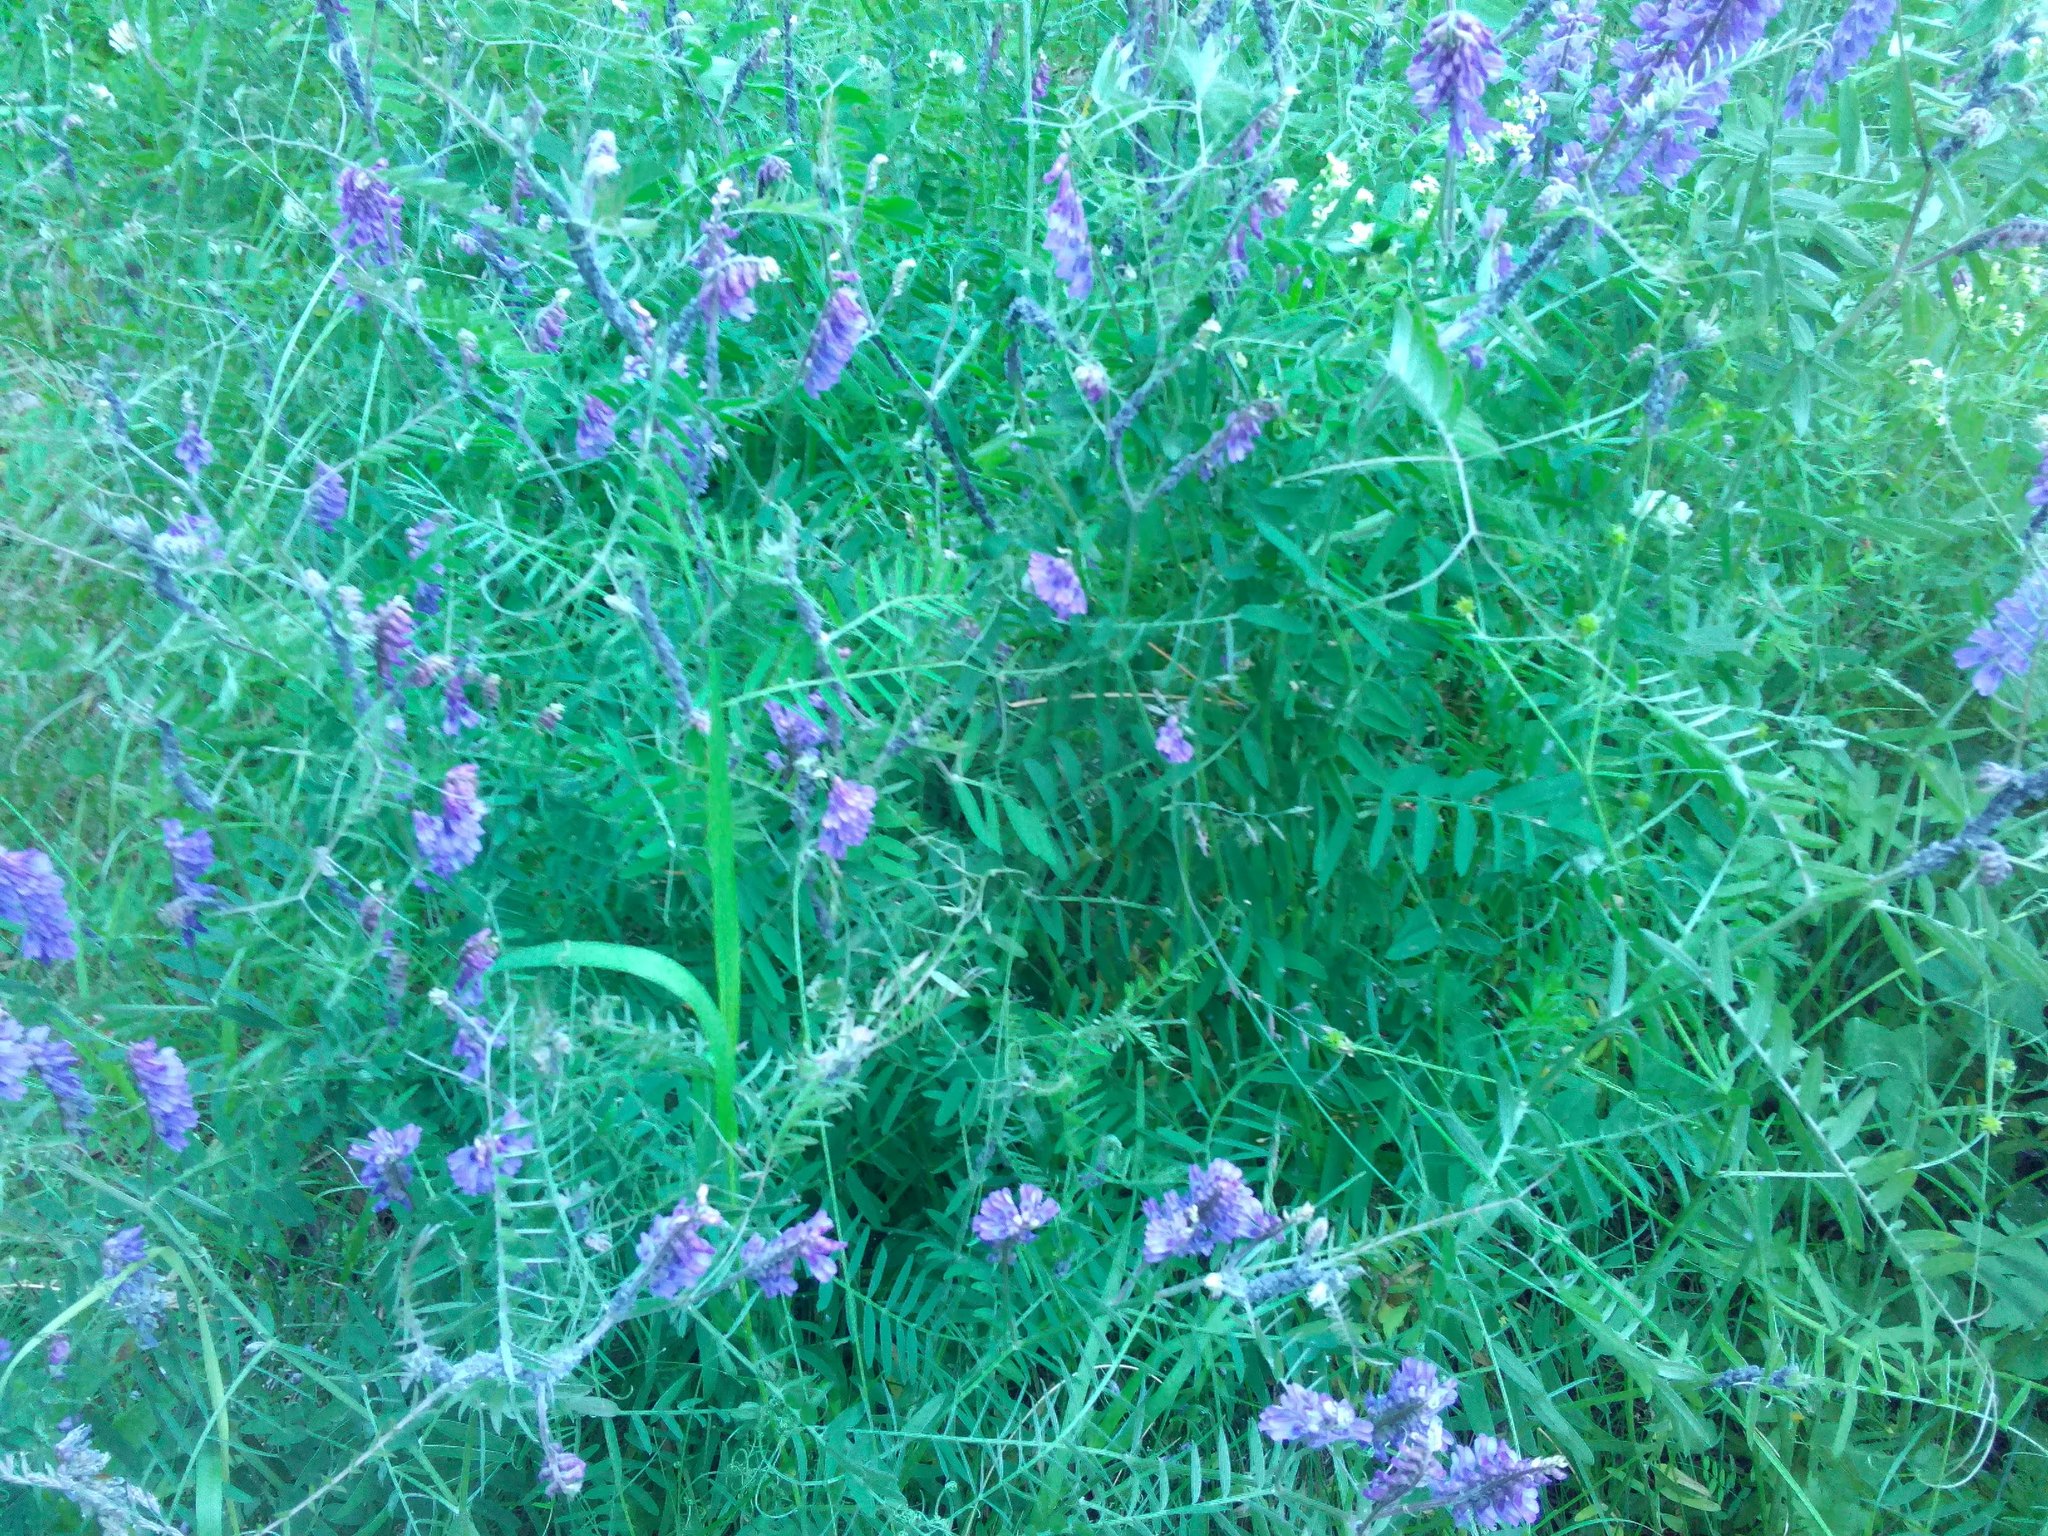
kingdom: Plantae
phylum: Tracheophyta
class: Magnoliopsida
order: Fabales
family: Fabaceae
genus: Vicia
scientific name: Vicia cracca
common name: Bird vetch
